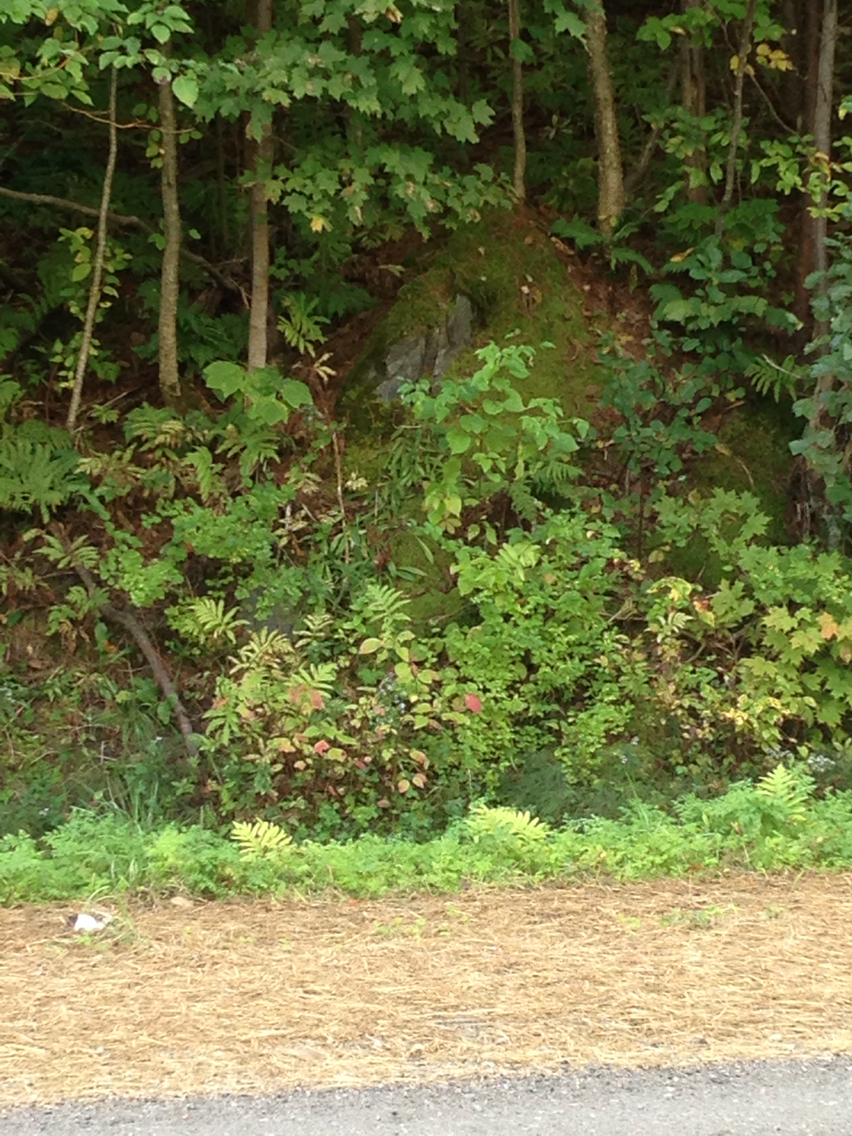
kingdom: Plantae
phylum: Tracheophyta
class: Polypodiopsida
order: Polypodiales
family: Onocleaceae
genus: Onoclea
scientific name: Onoclea sensibilis
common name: Sensitive fern
